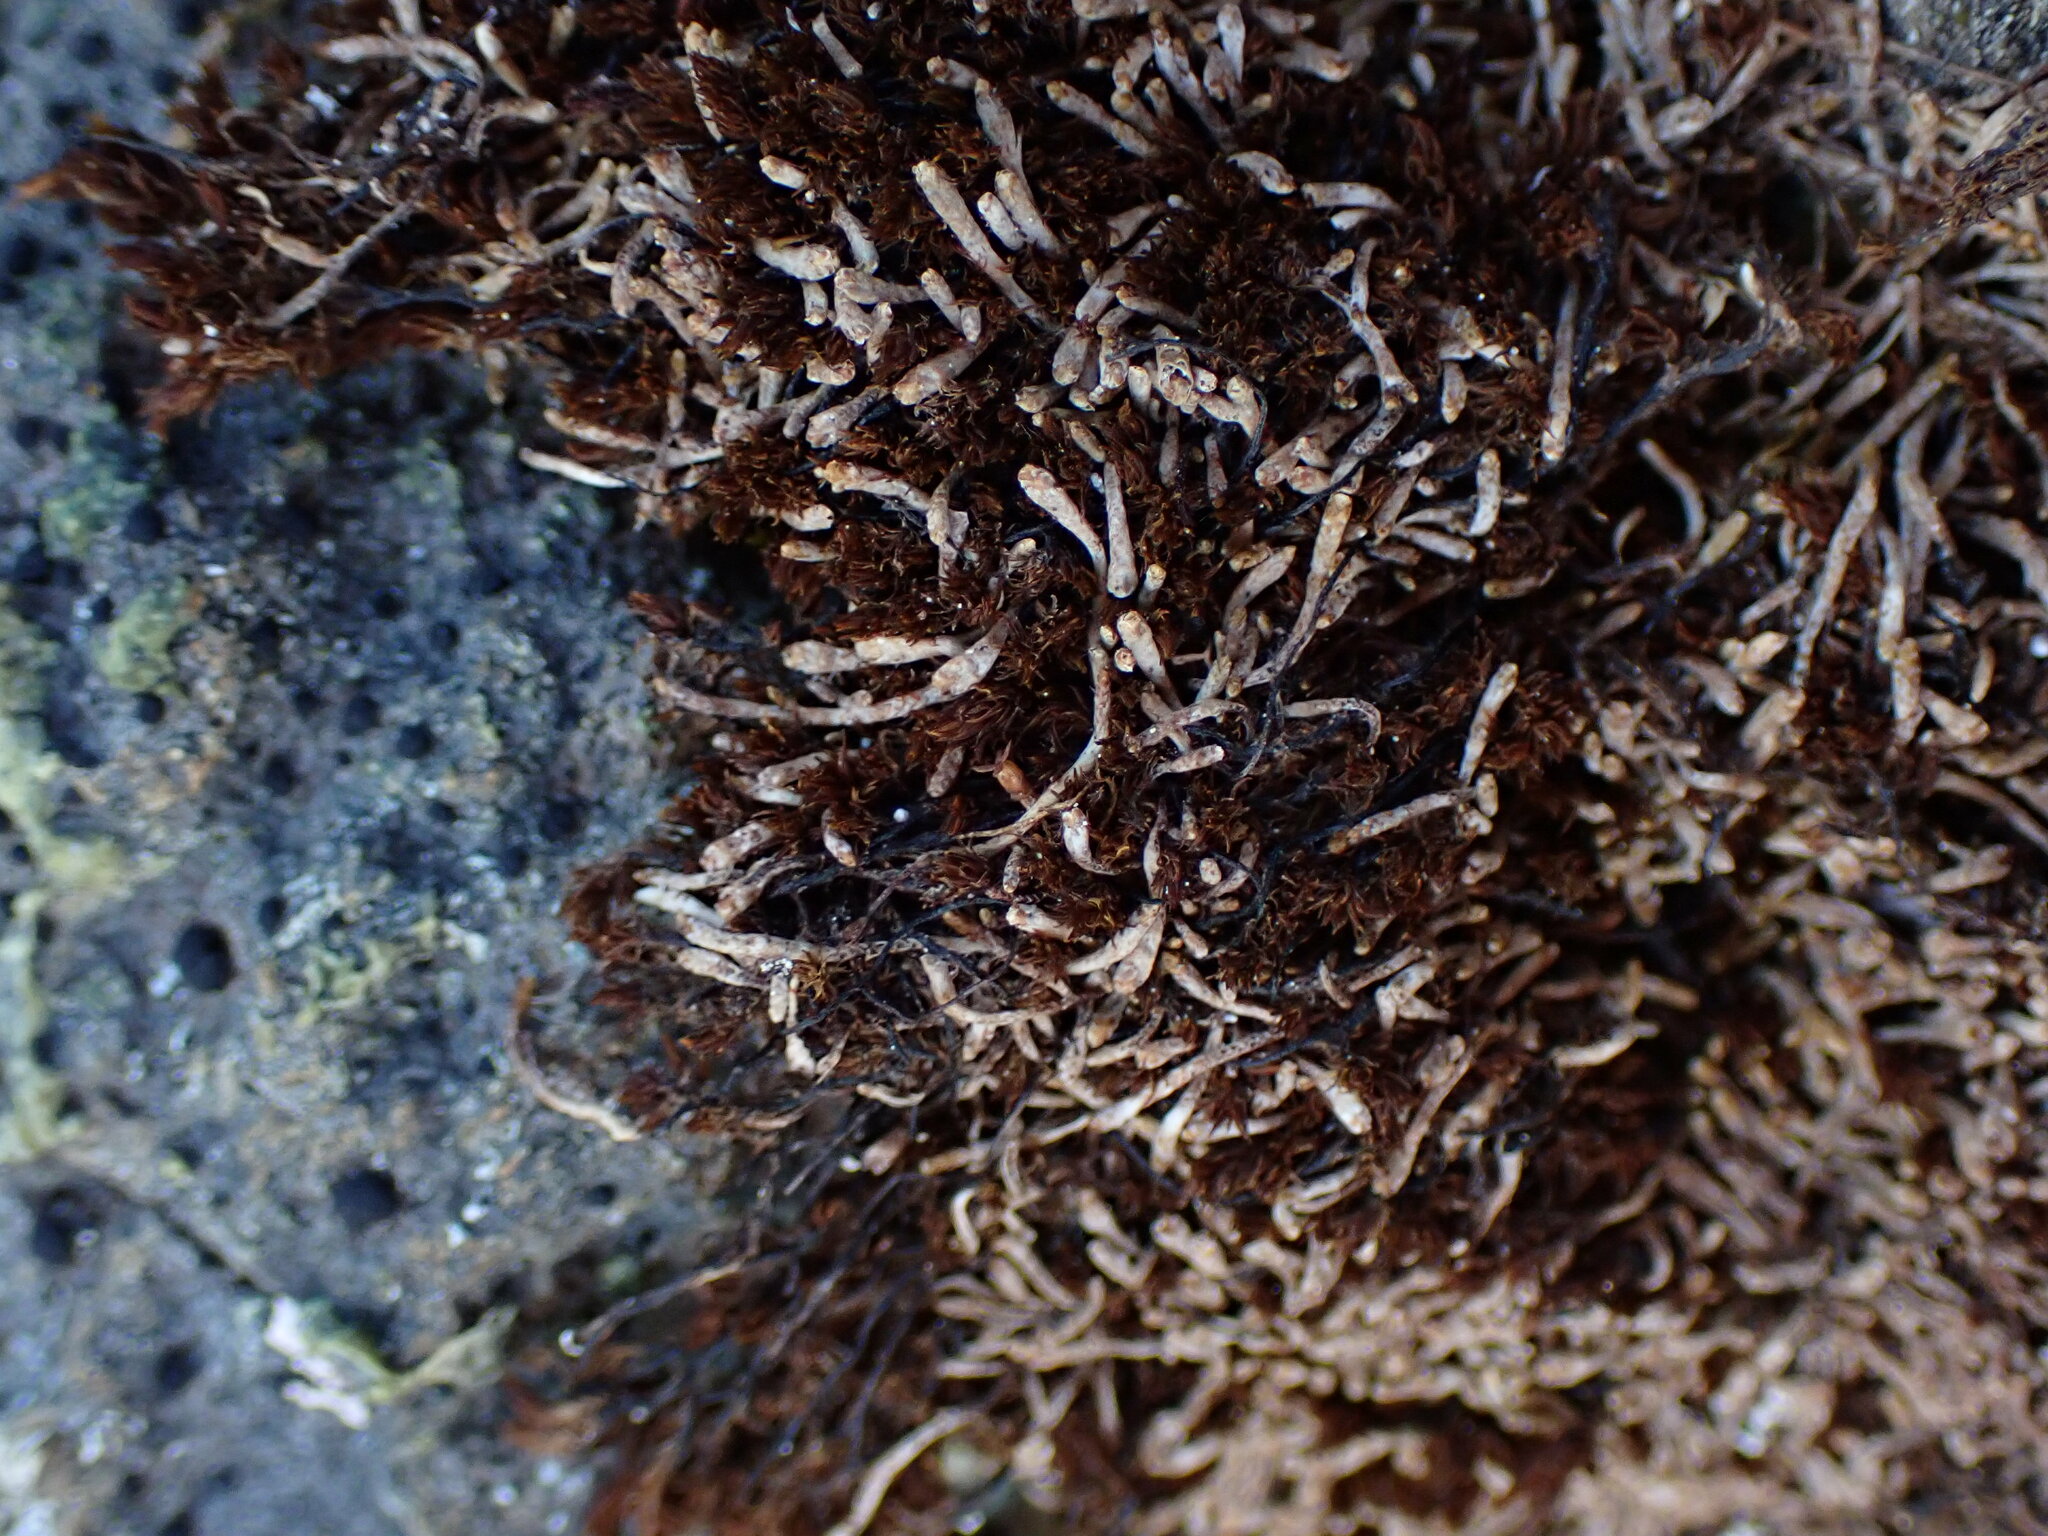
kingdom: Plantae
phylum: Marchantiophyta
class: Jungermanniopsida
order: Jungermanniales
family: Gymnomitriaceae
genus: Gymnomitrion
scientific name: Gymnomitrion obtusum
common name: White frostwort
